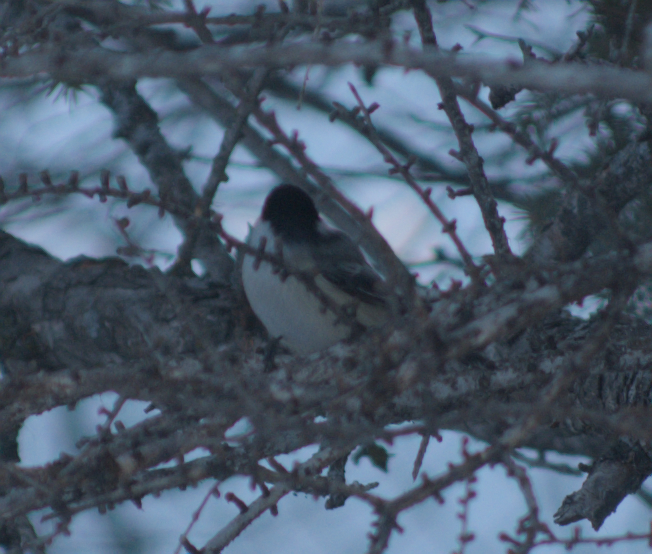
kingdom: Animalia
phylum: Chordata
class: Aves
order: Passeriformes
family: Paridae
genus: Poecile
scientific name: Poecile atricapillus
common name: Black-capped chickadee
